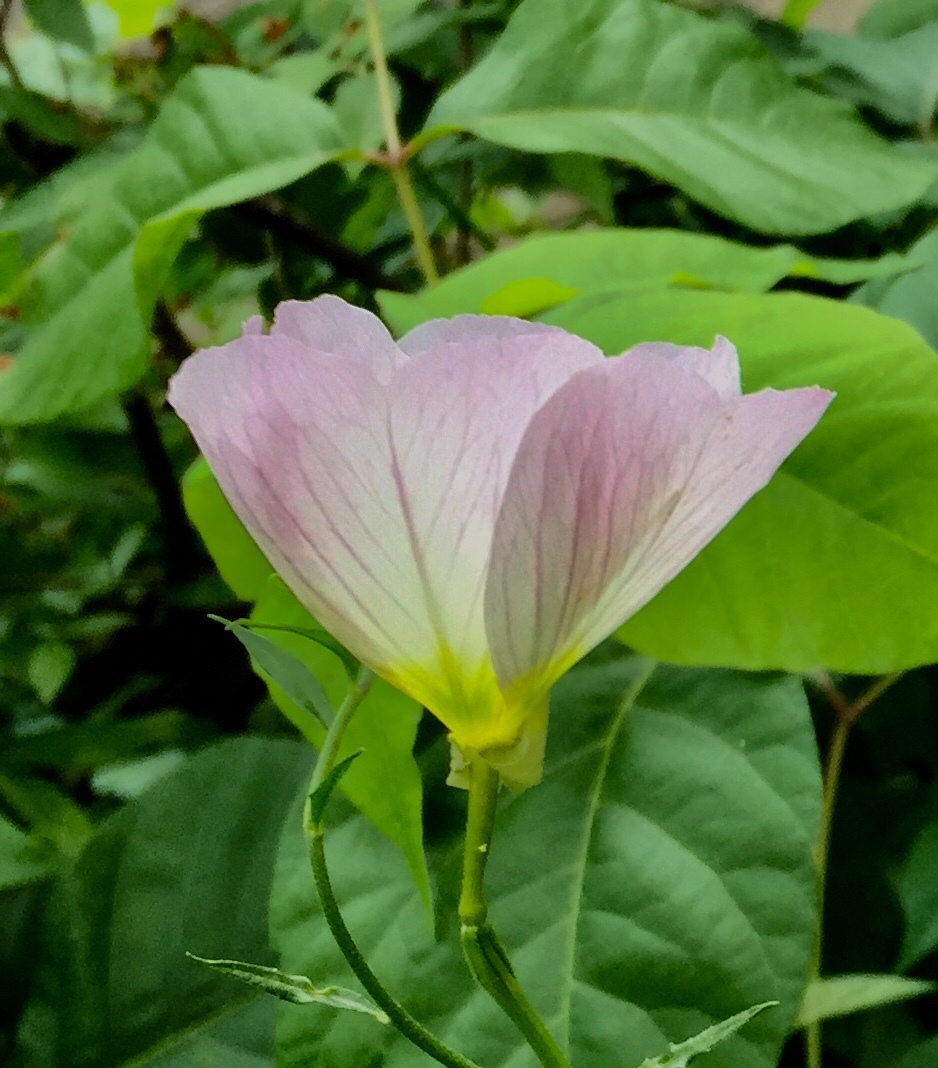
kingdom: Plantae
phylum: Tracheophyta
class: Magnoliopsida
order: Myrtales
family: Onagraceae
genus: Oenothera
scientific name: Oenothera speciosa
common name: White evening-primrose
